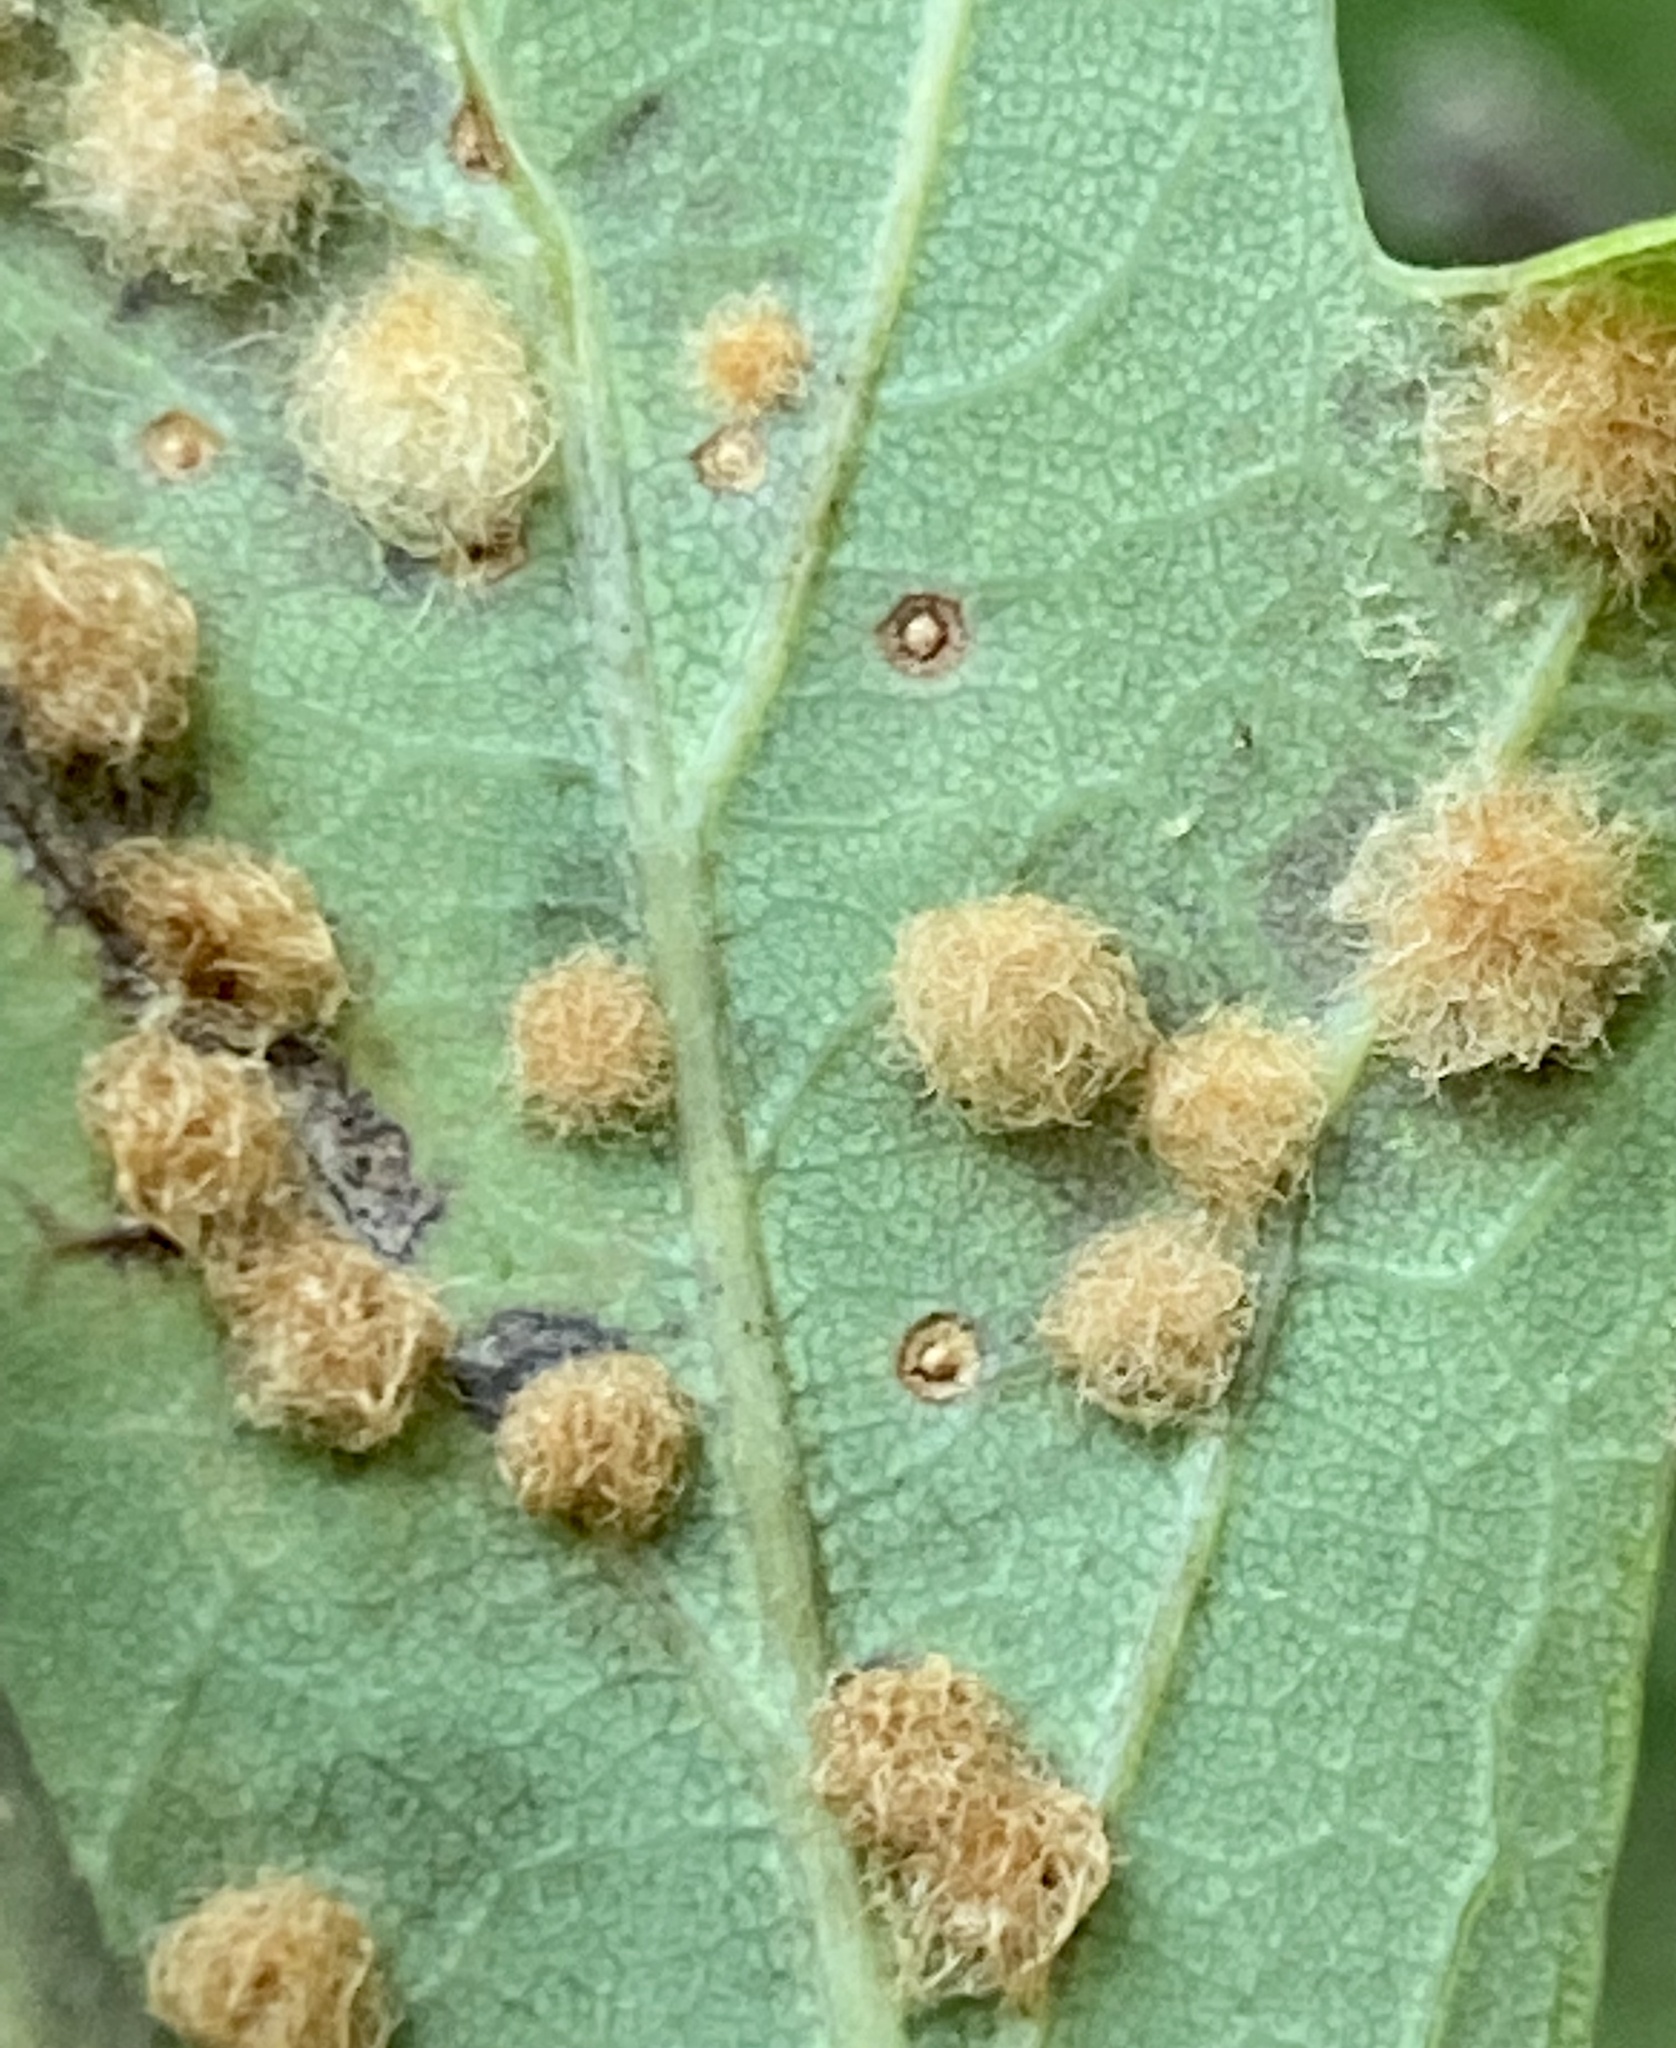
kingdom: Animalia
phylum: Arthropoda
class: Insecta
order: Hymenoptera
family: Cynipidae
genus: Neuroterus
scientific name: Neuroterus quercusverrucarum
